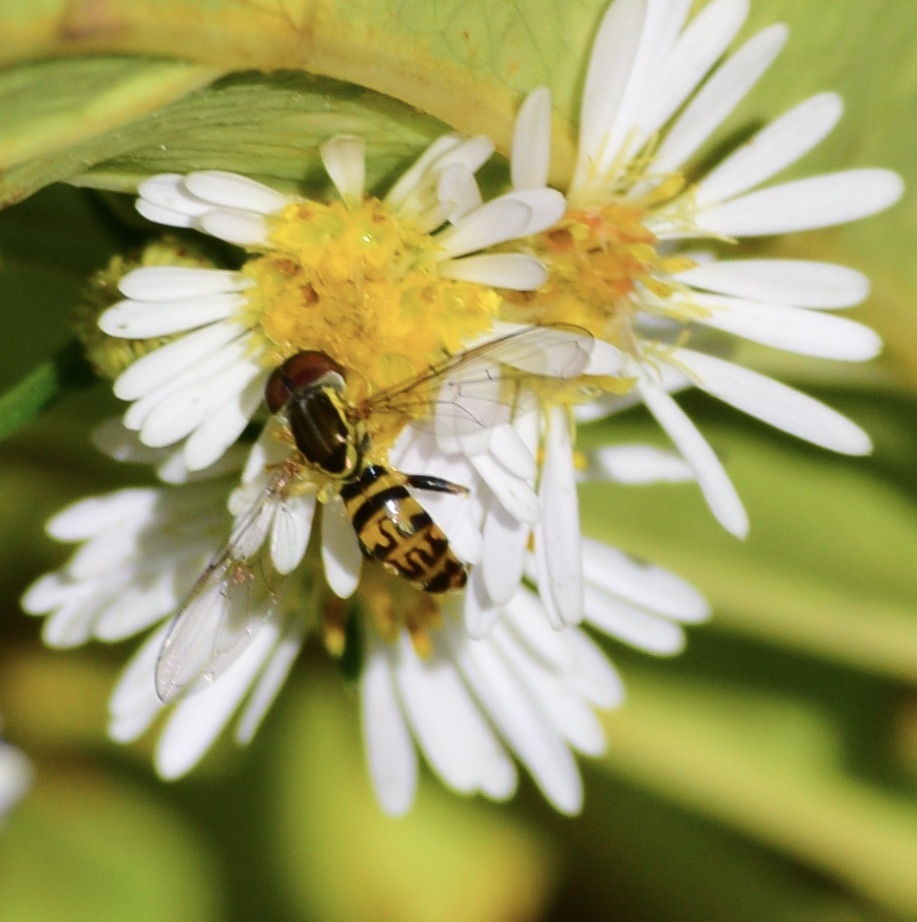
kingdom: Animalia
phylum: Arthropoda
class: Insecta
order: Diptera
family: Syrphidae
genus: Toxomerus
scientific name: Toxomerus geminatus
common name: Eastern calligrapher
